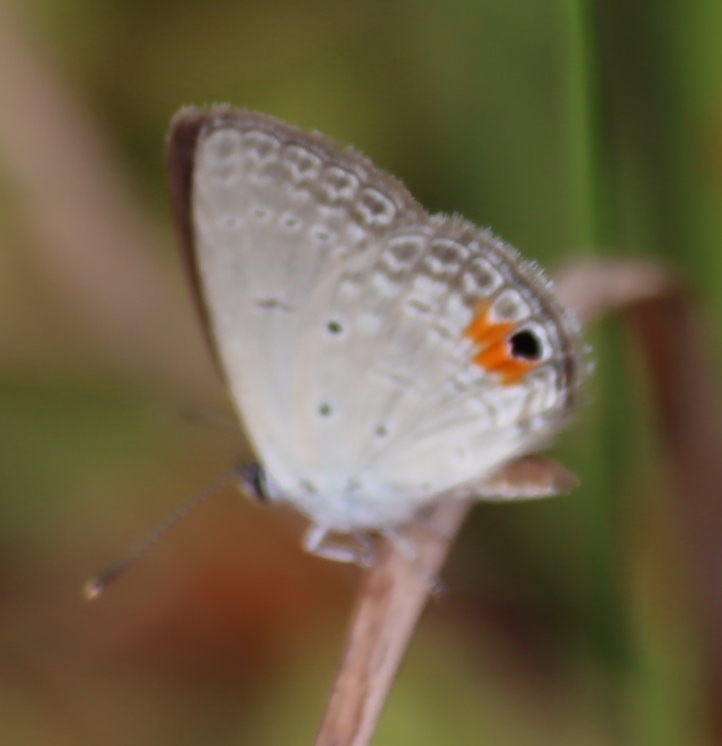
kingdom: Animalia
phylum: Arthropoda
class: Insecta
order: Lepidoptera
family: Lycaenidae
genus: Eicochrysops
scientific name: Eicochrysops messapus
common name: Cupreous blue
